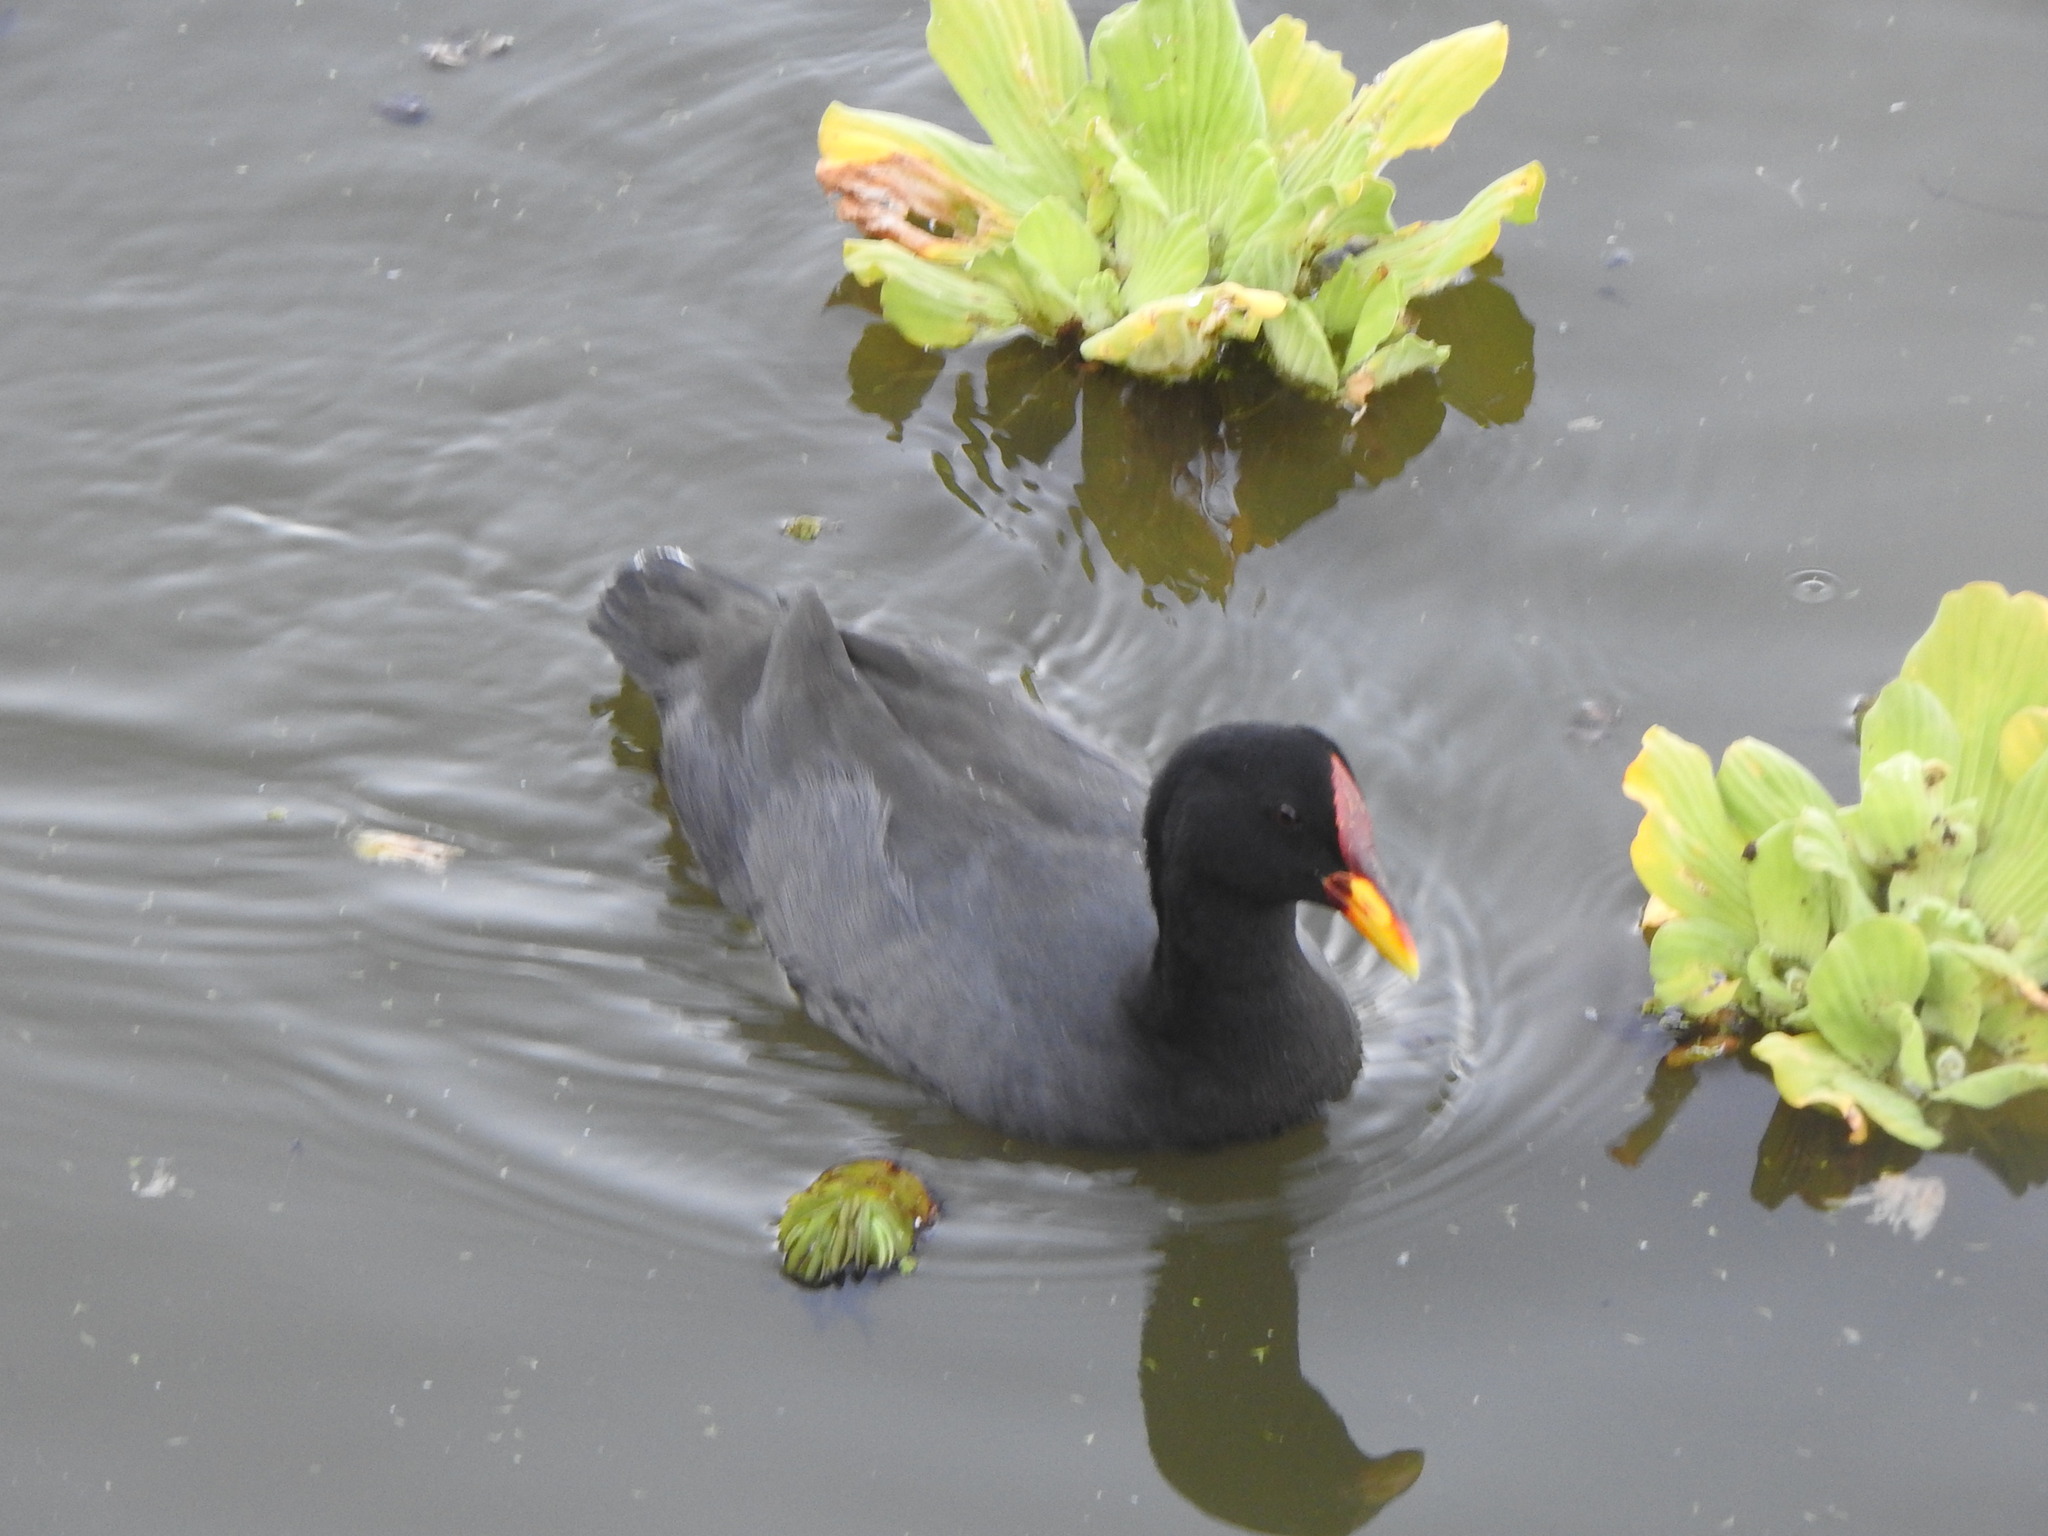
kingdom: Animalia
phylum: Chordata
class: Aves
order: Gruiformes
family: Rallidae
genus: Fulica
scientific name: Fulica rufifrons
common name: Red-fronted coot
